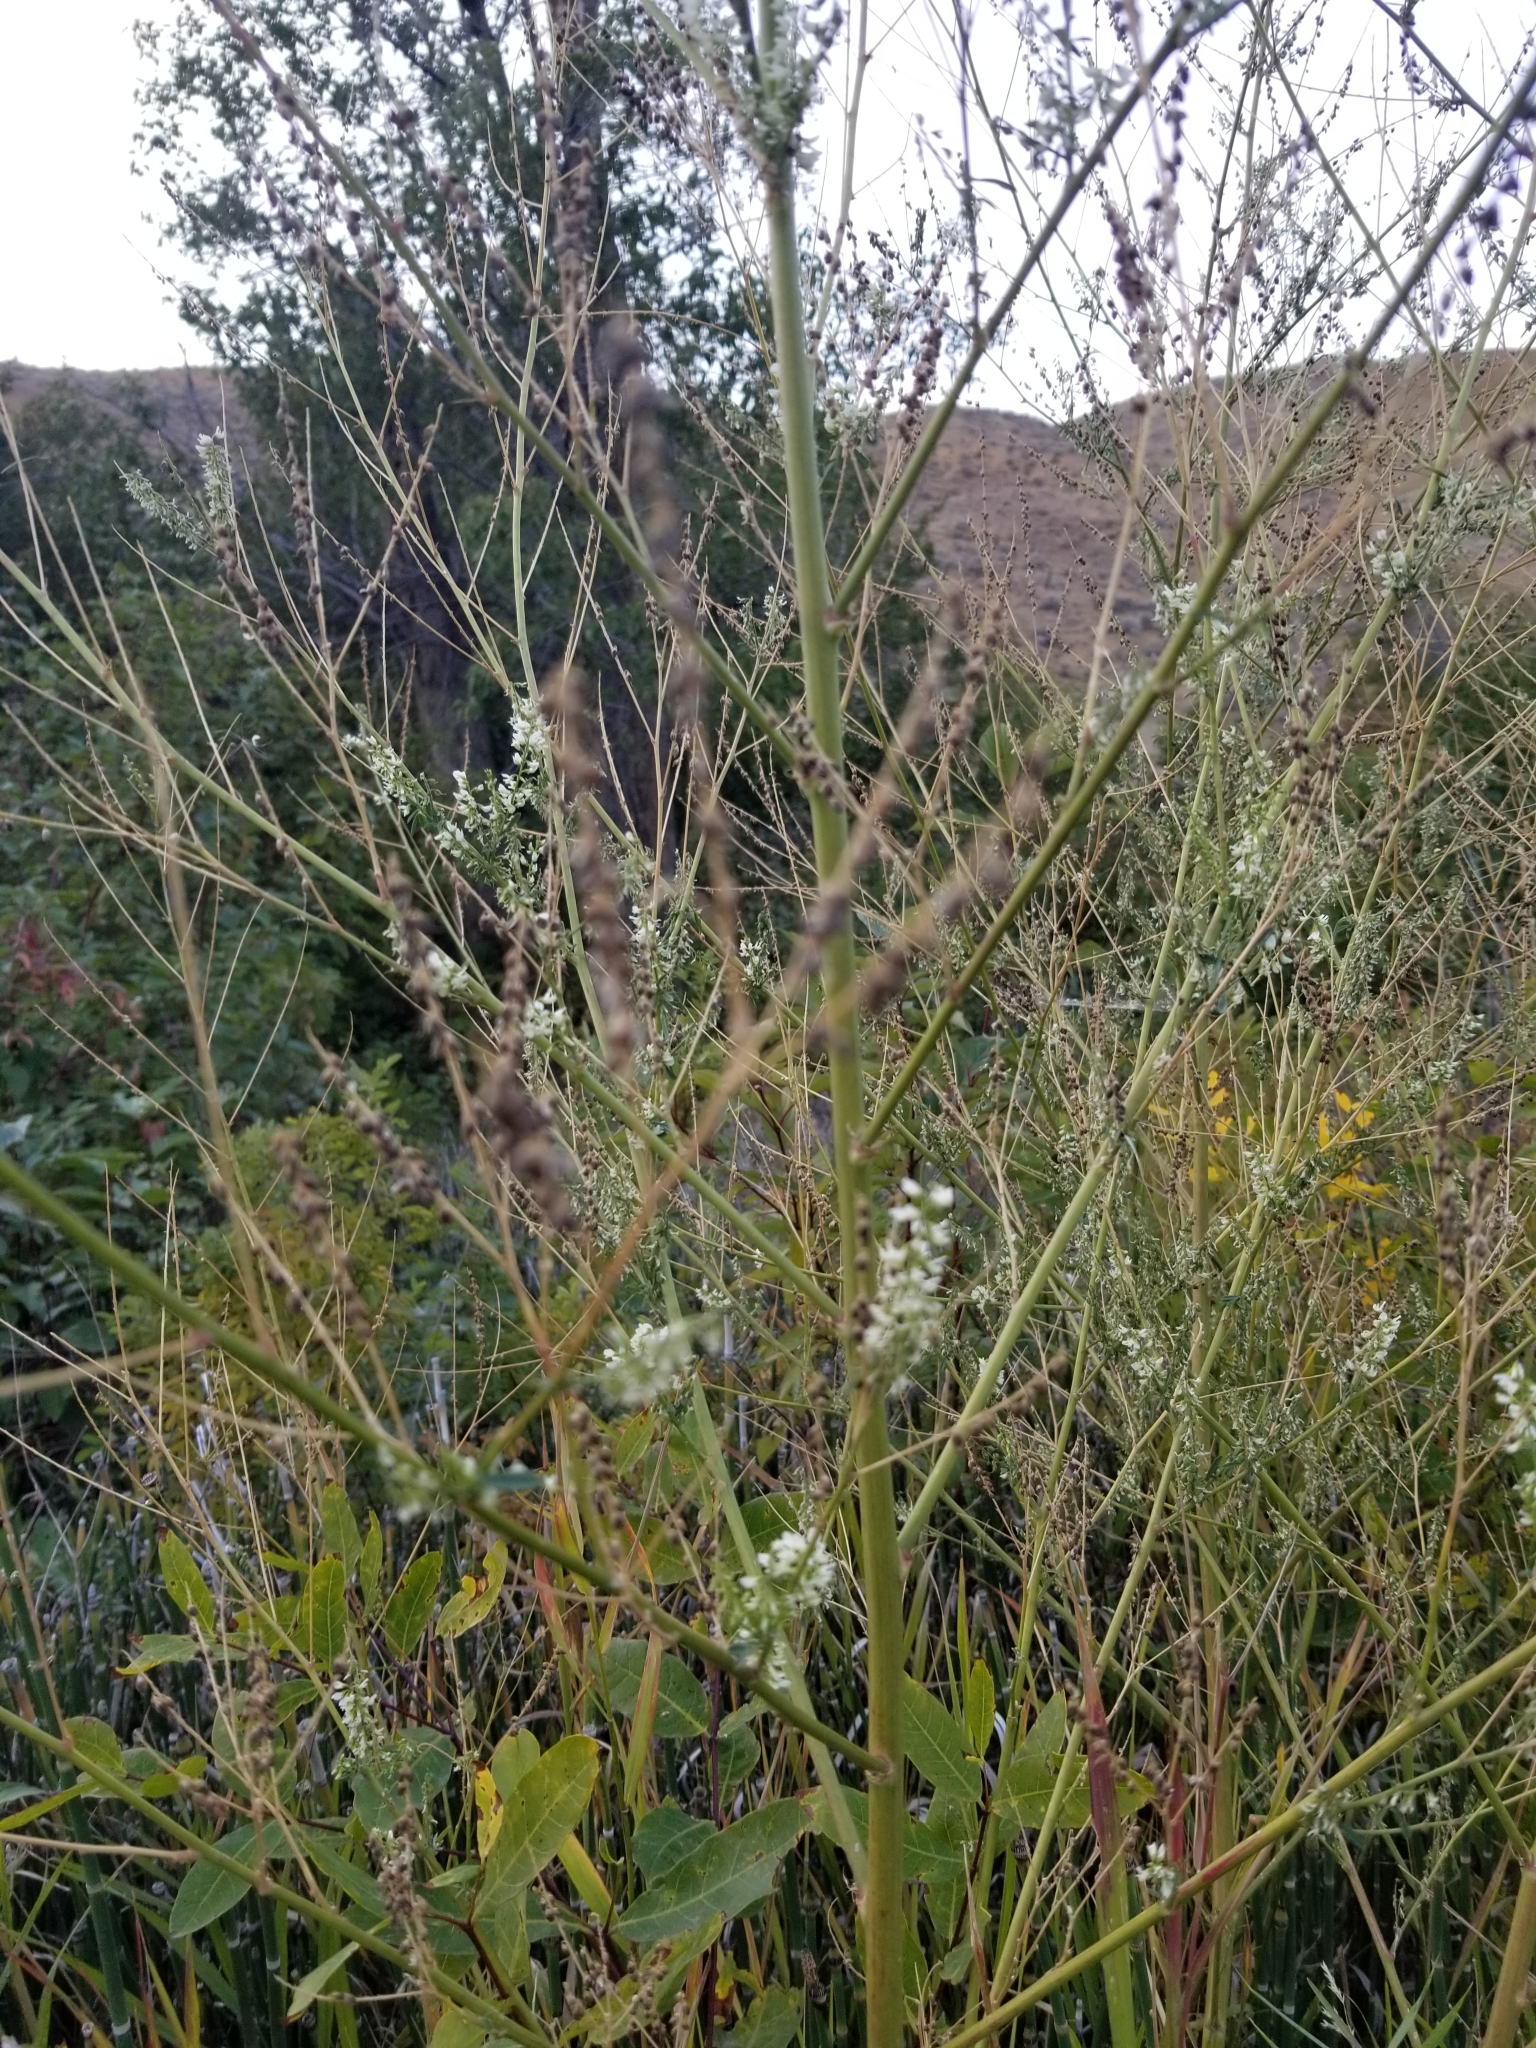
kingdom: Plantae
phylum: Tracheophyta
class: Magnoliopsida
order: Fabales
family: Fabaceae
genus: Melilotus
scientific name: Melilotus albus
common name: White melilot
